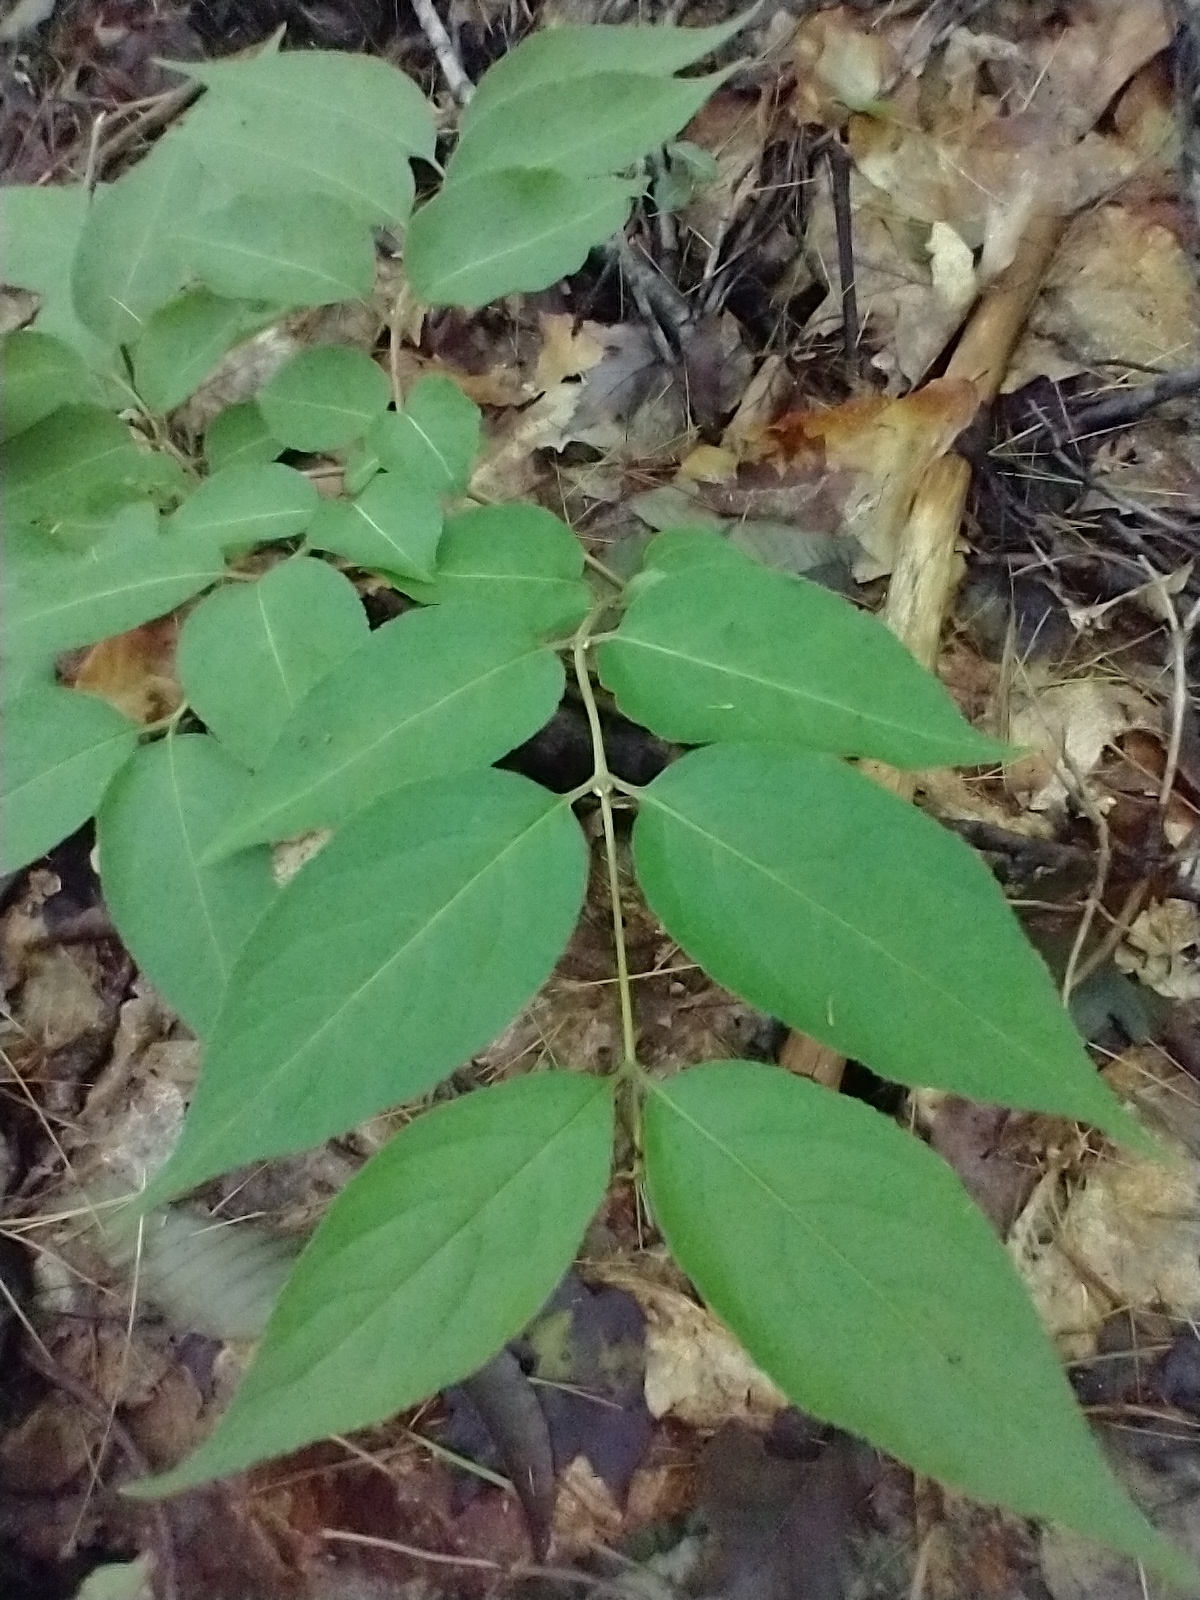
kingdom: Plantae
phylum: Tracheophyta
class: Magnoliopsida
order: Dipsacales
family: Caprifoliaceae
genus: Diervilla
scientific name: Diervilla lonicera
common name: Bush-honeysuckle
